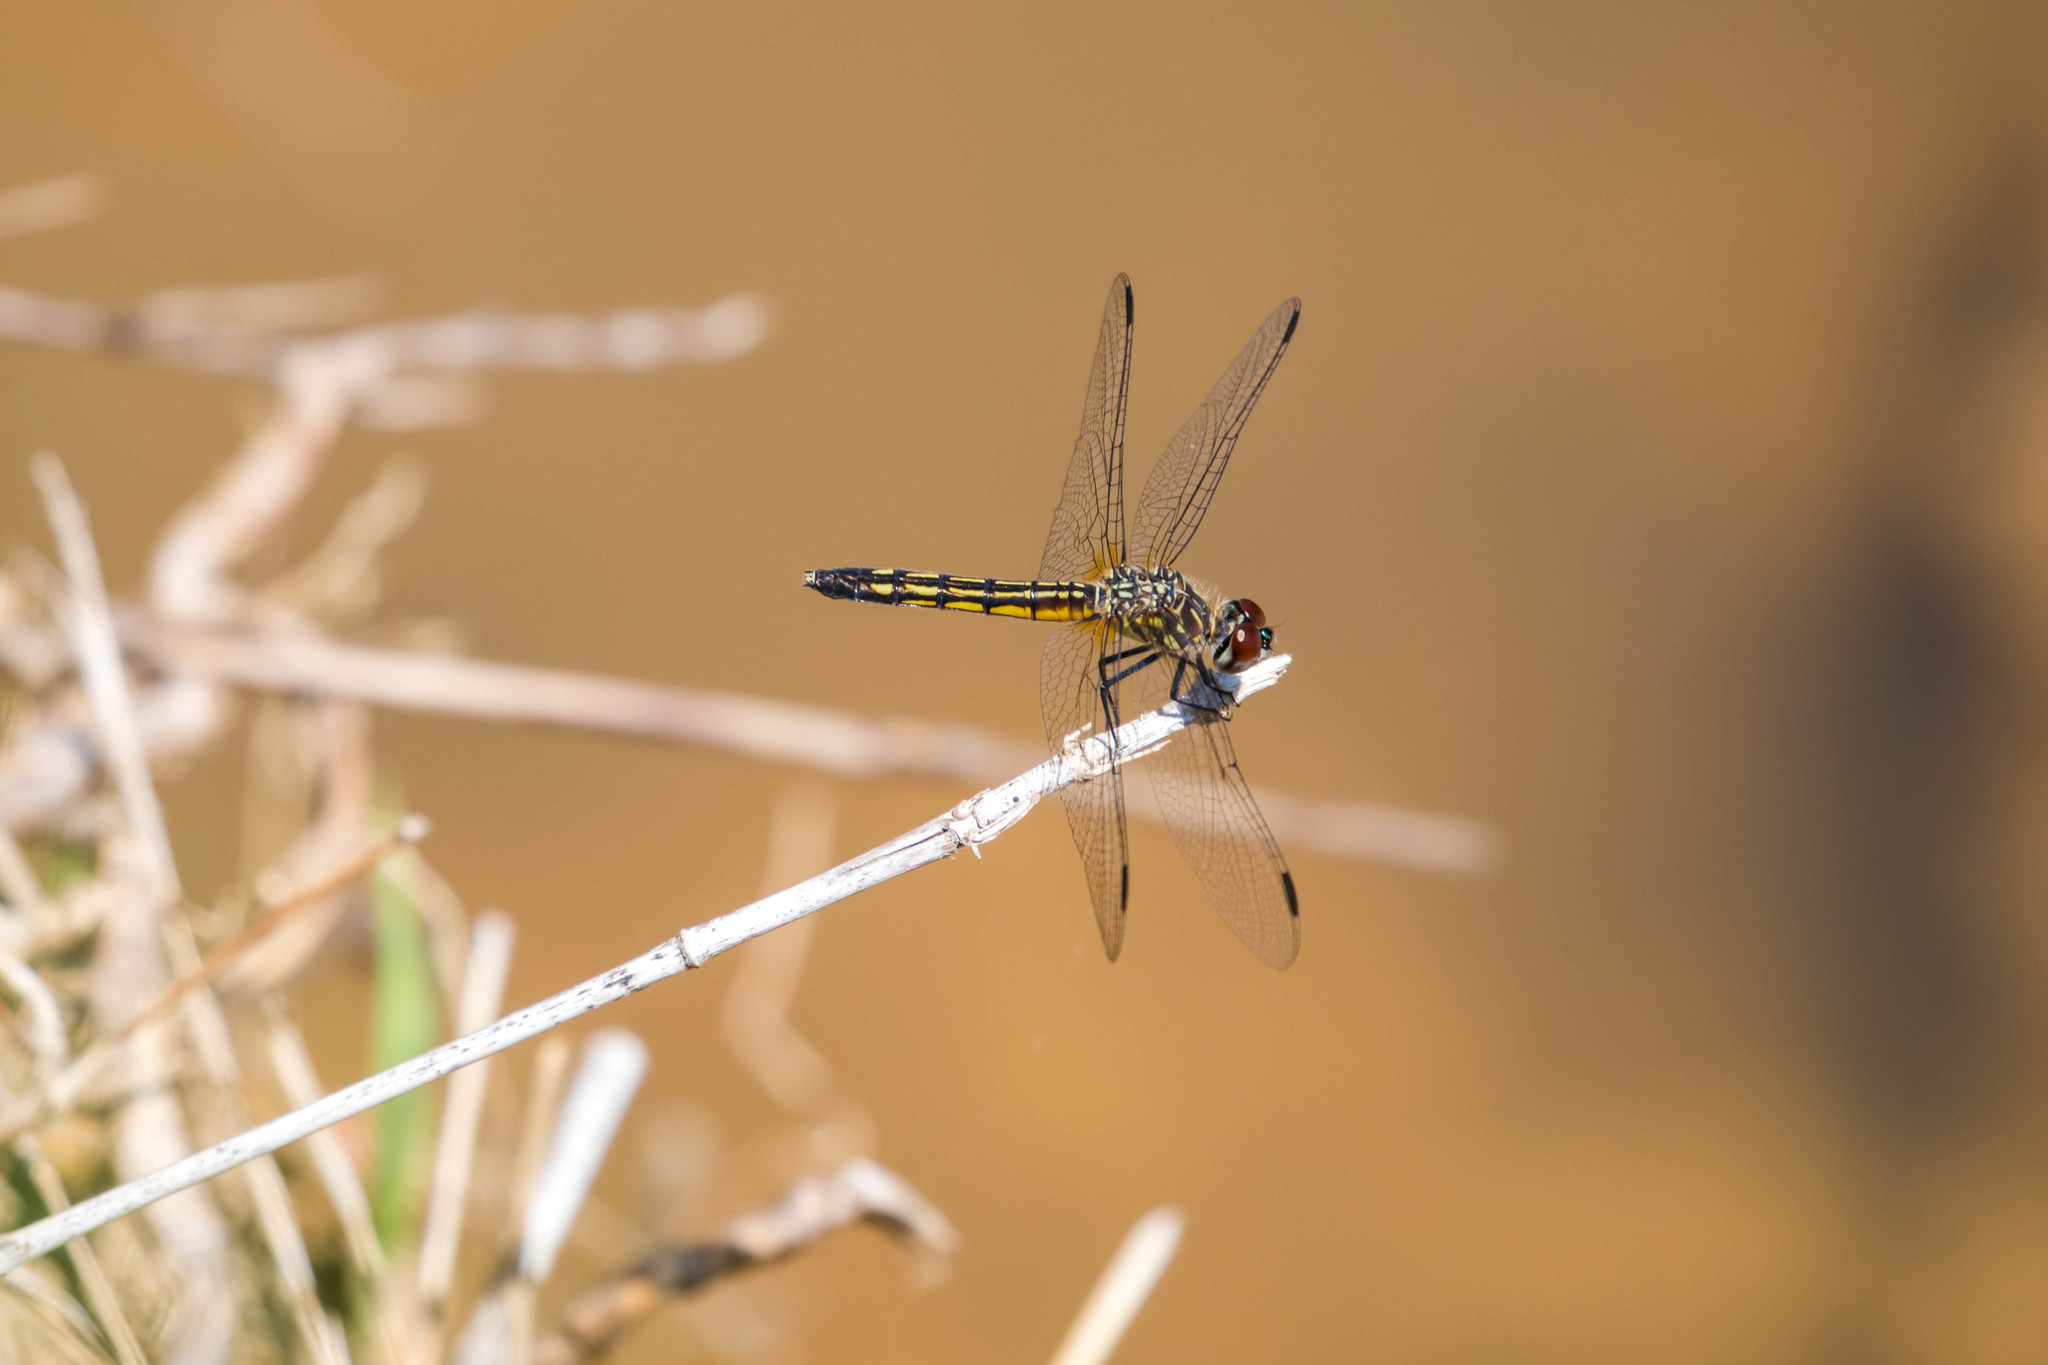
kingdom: Animalia
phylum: Arthropoda
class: Insecta
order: Odonata
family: Libellulidae
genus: Pachydiplax
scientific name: Pachydiplax longipennis
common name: Blue dasher
